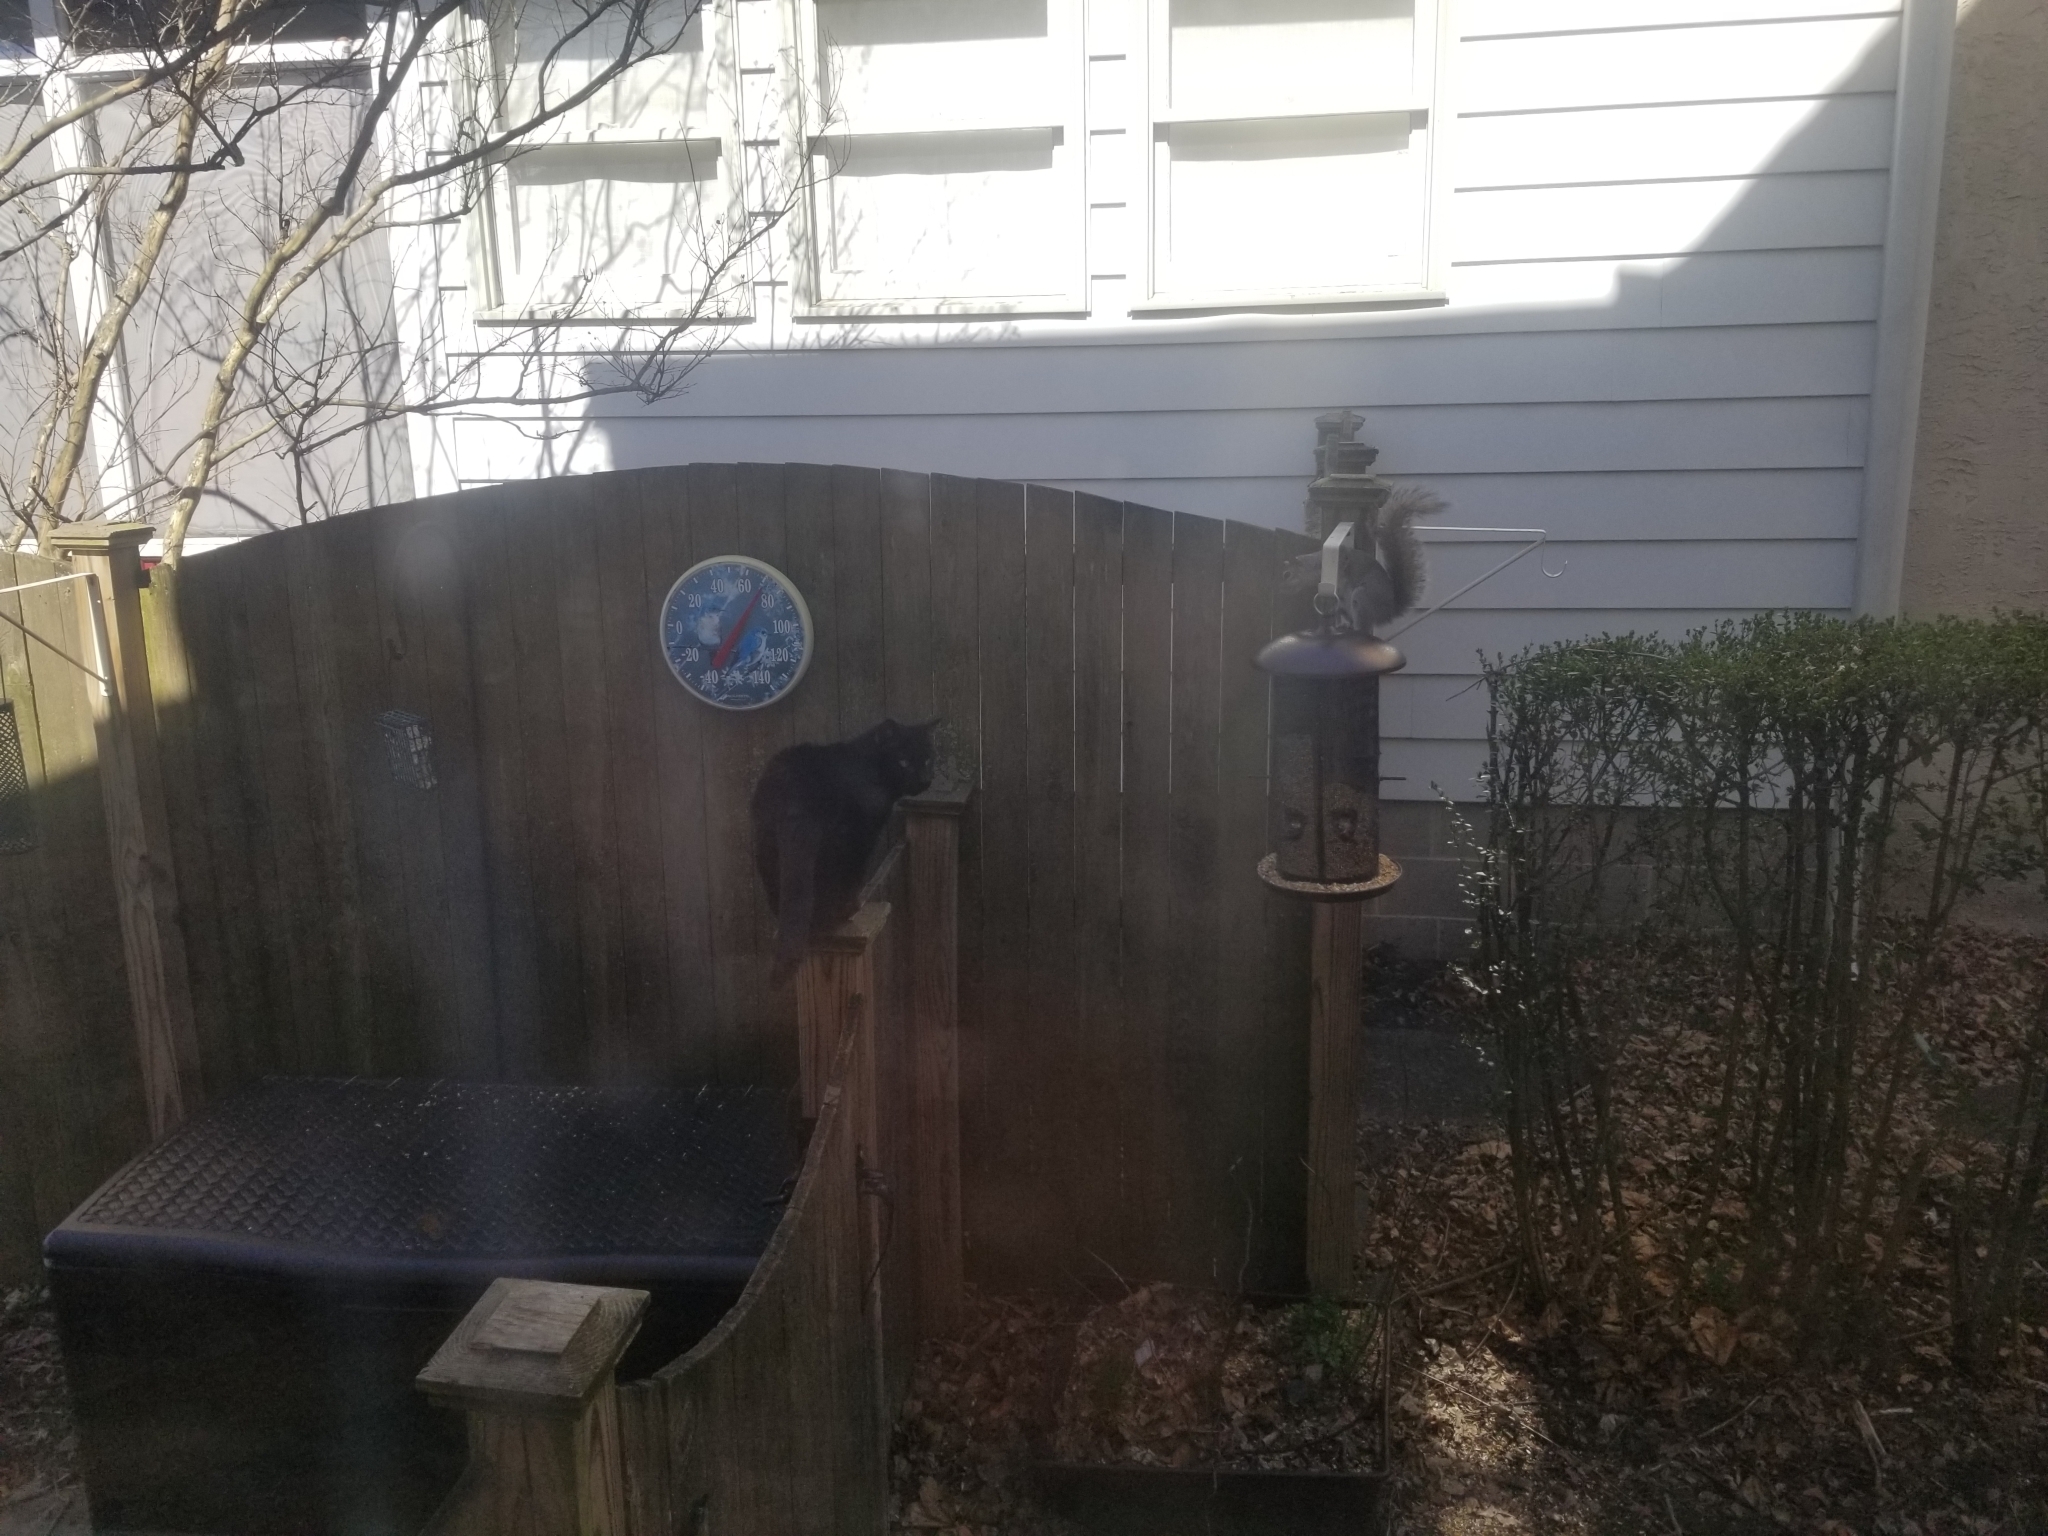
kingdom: Animalia
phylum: Chordata
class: Mammalia
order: Rodentia
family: Sciuridae
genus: Sciurus
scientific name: Sciurus carolinensis
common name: Eastern gray squirrel
